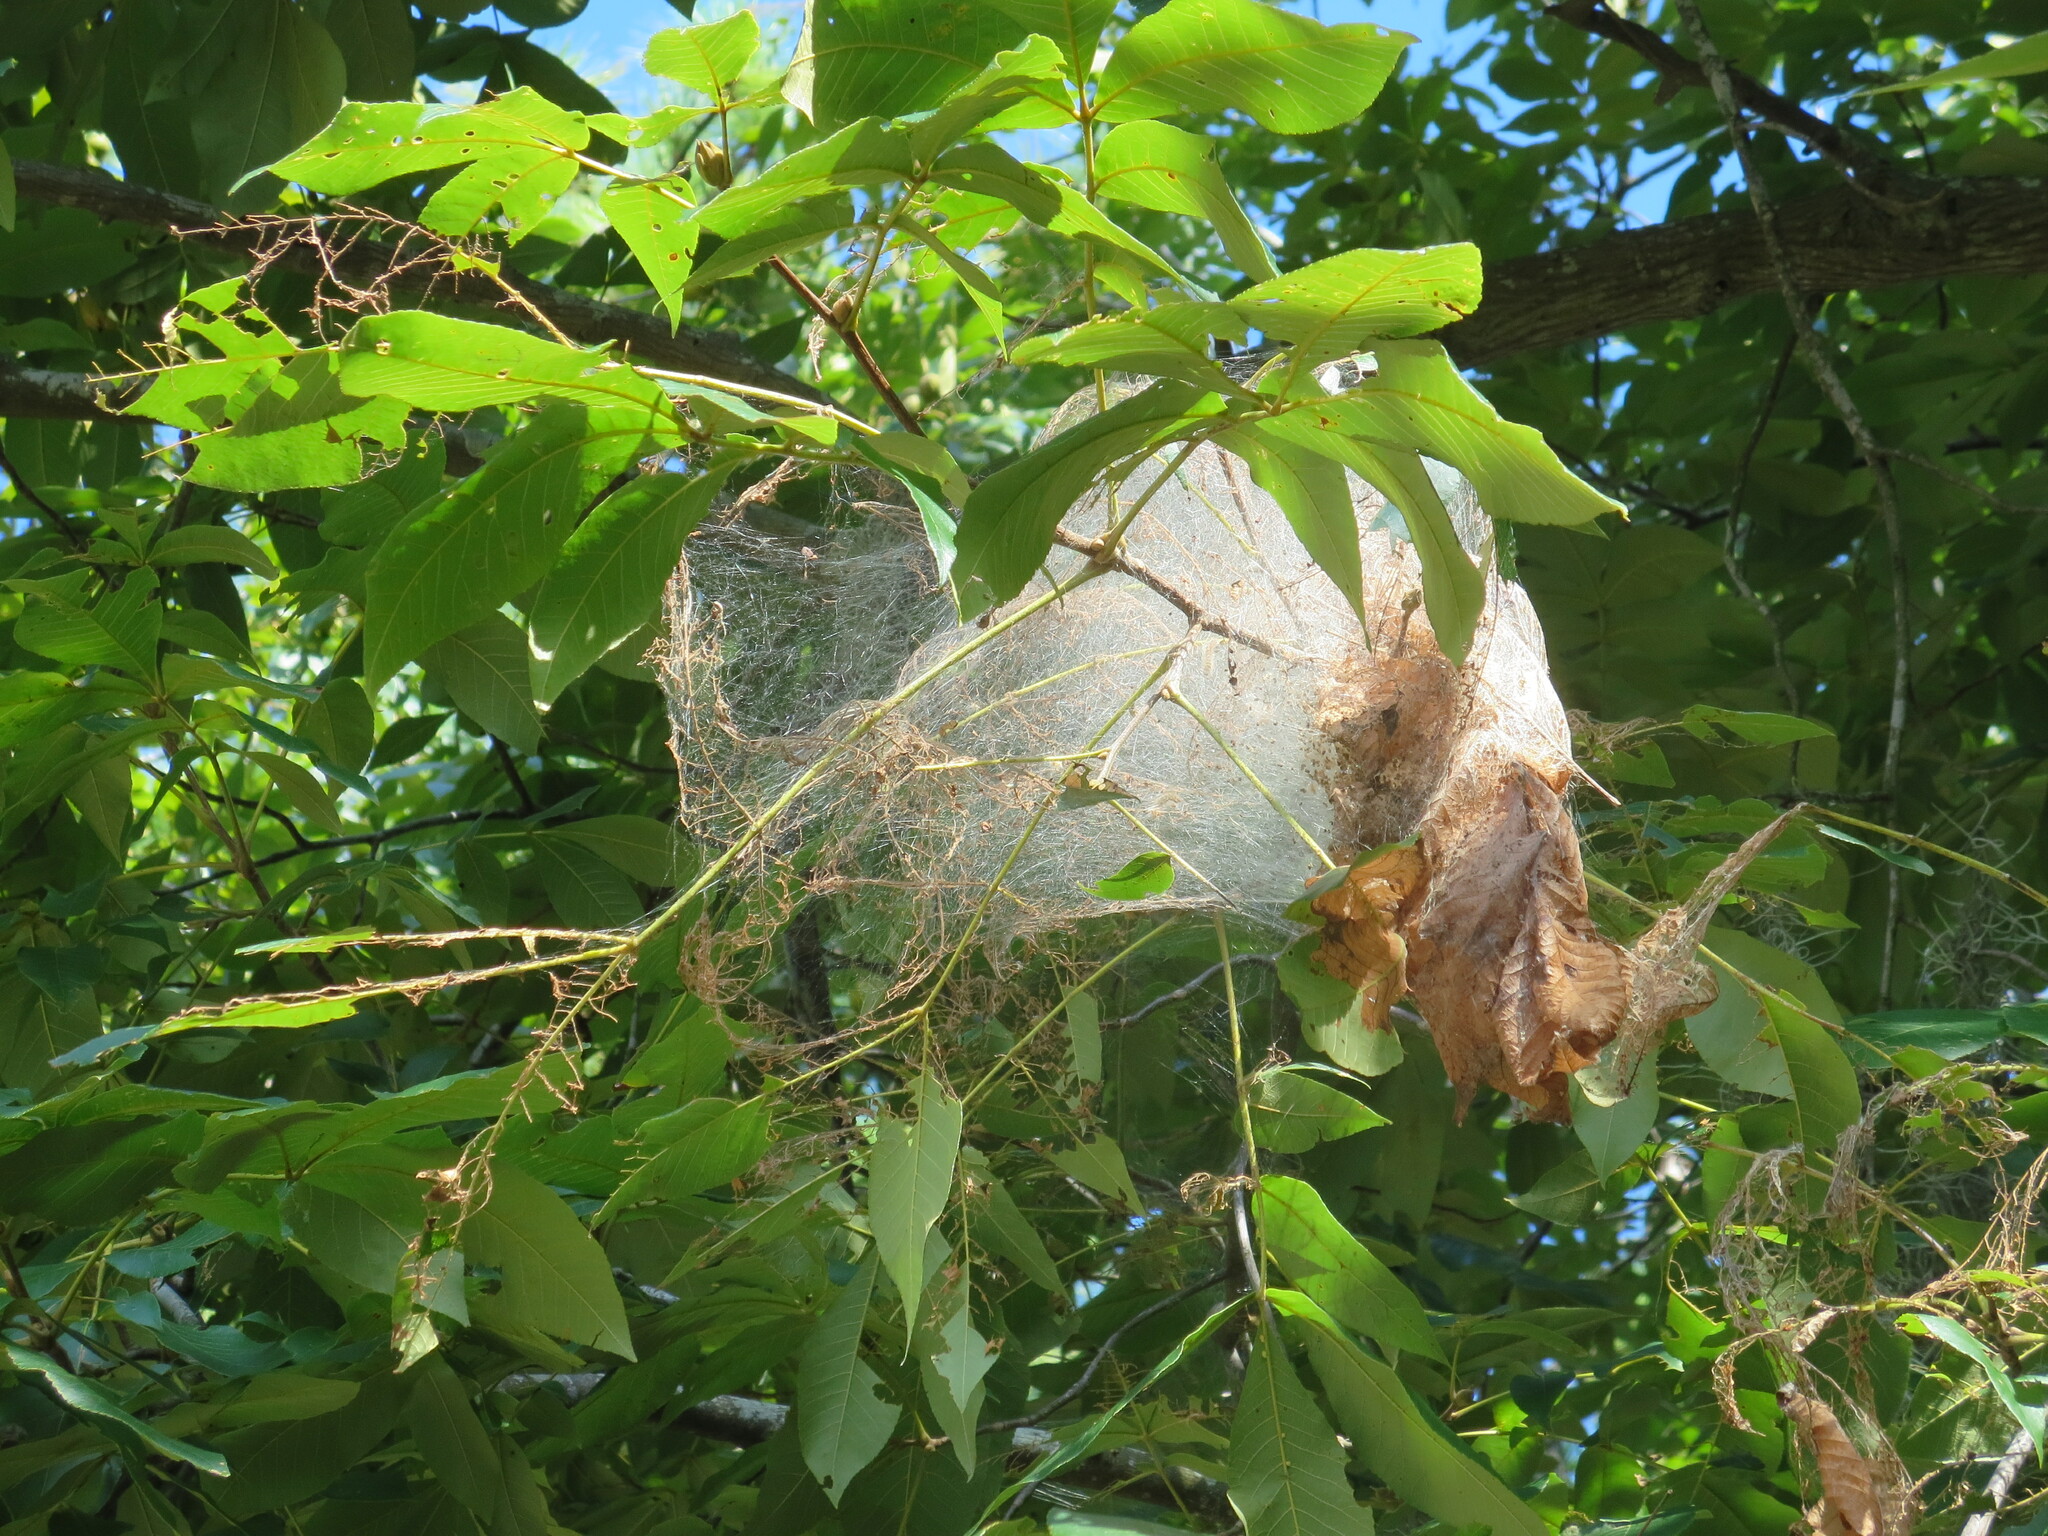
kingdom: Animalia
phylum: Arthropoda
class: Insecta
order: Lepidoptera
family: Erebidae
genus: Hyphantria
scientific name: Hyphantria cunea
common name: American white moth
